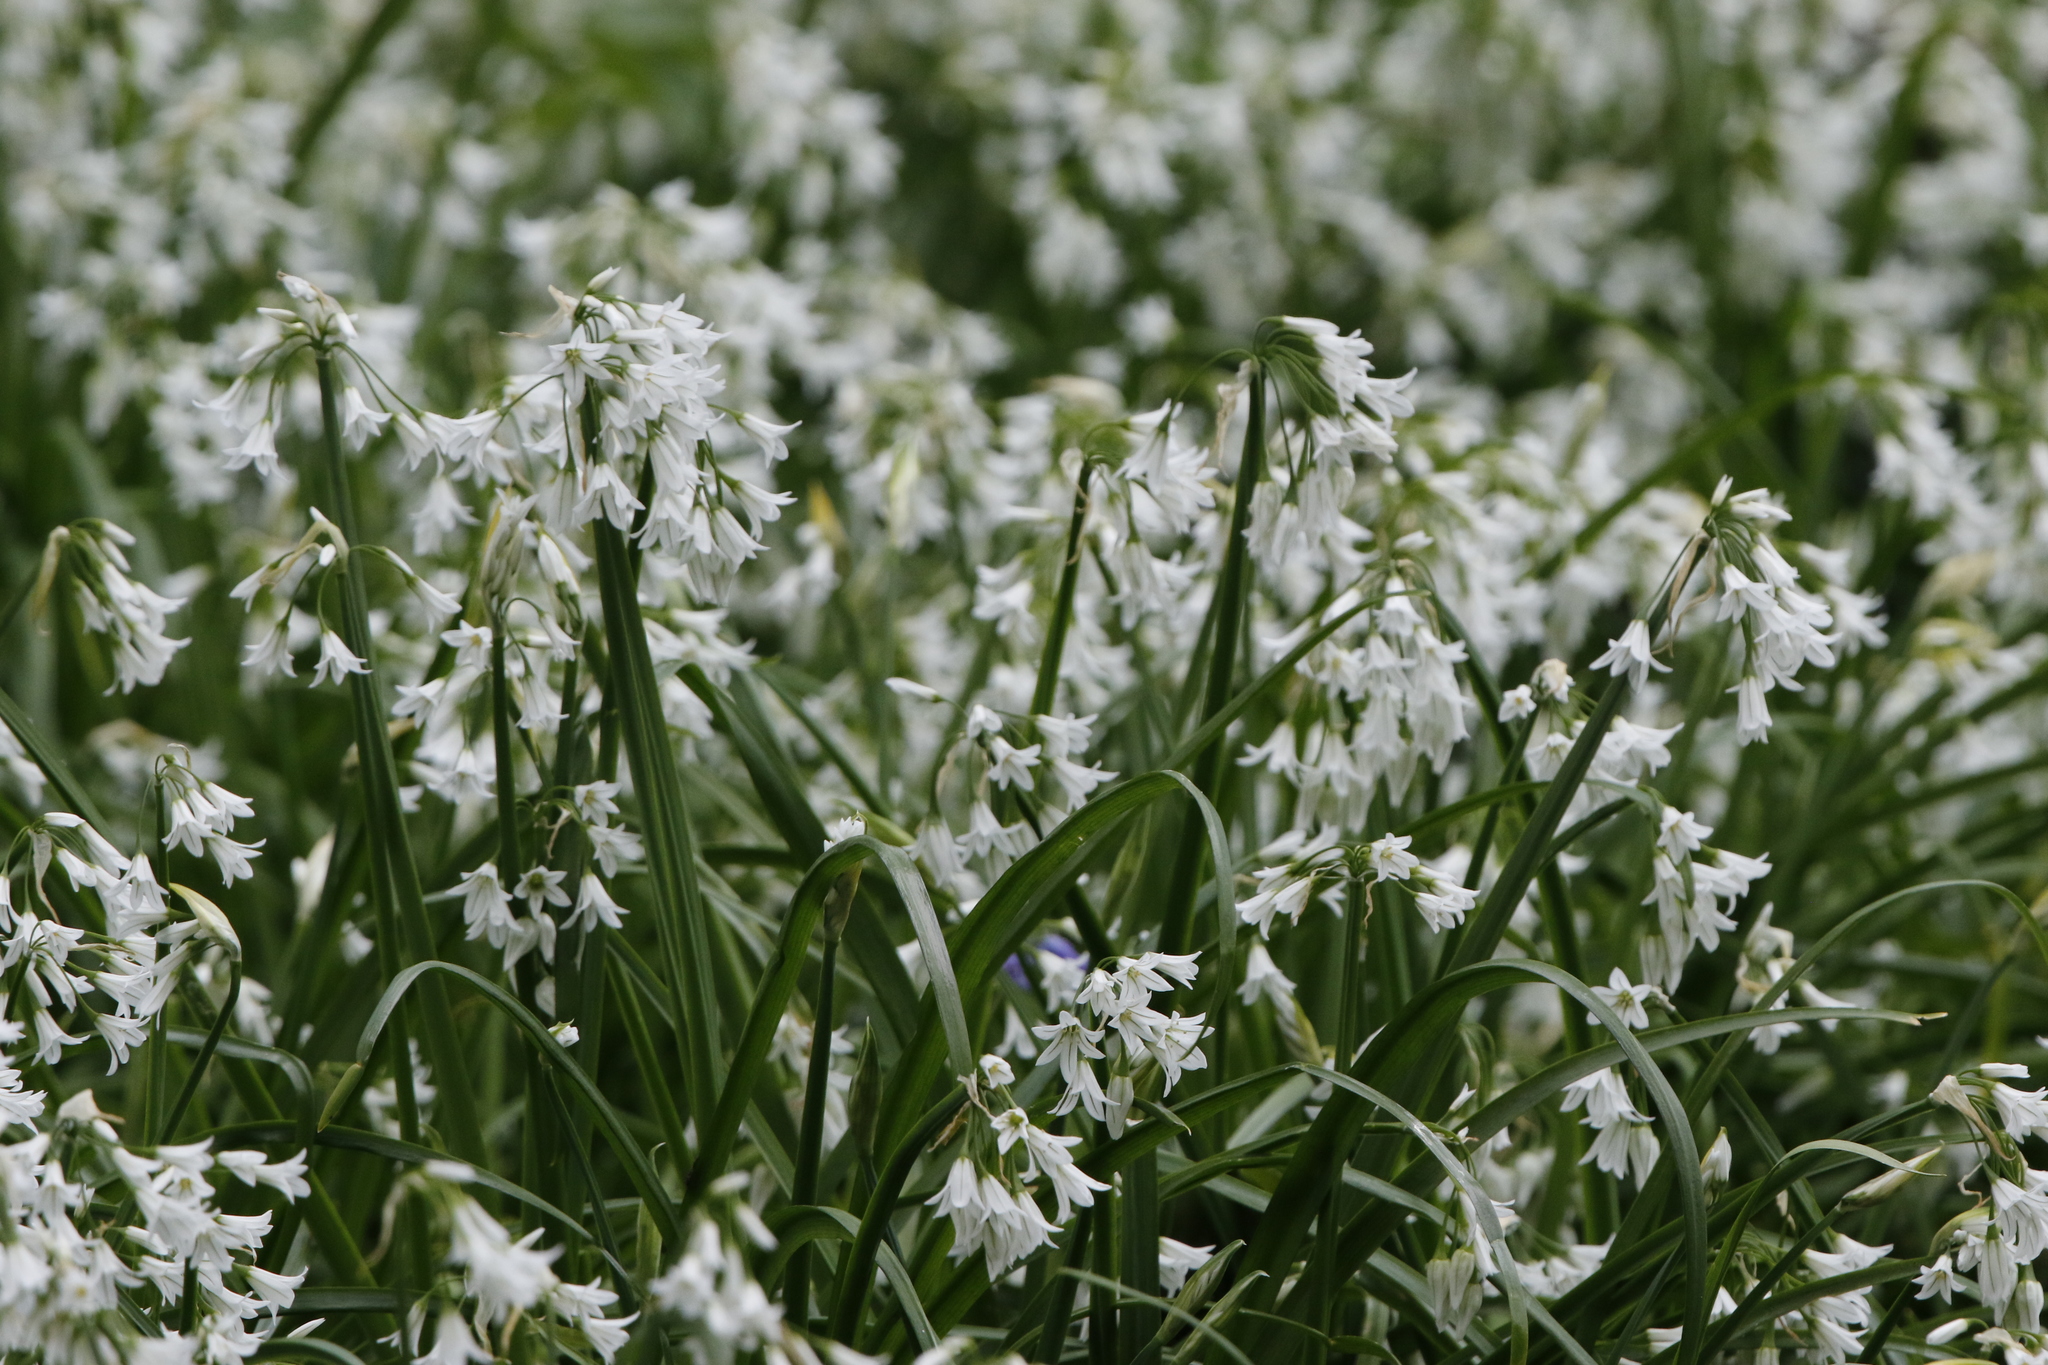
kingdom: Plantae
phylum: Tracheophyta
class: Liliopsida
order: Asparagales
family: Amaryllidaceae
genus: Allium
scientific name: Allium triquetrum
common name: Three-cornered garlic
